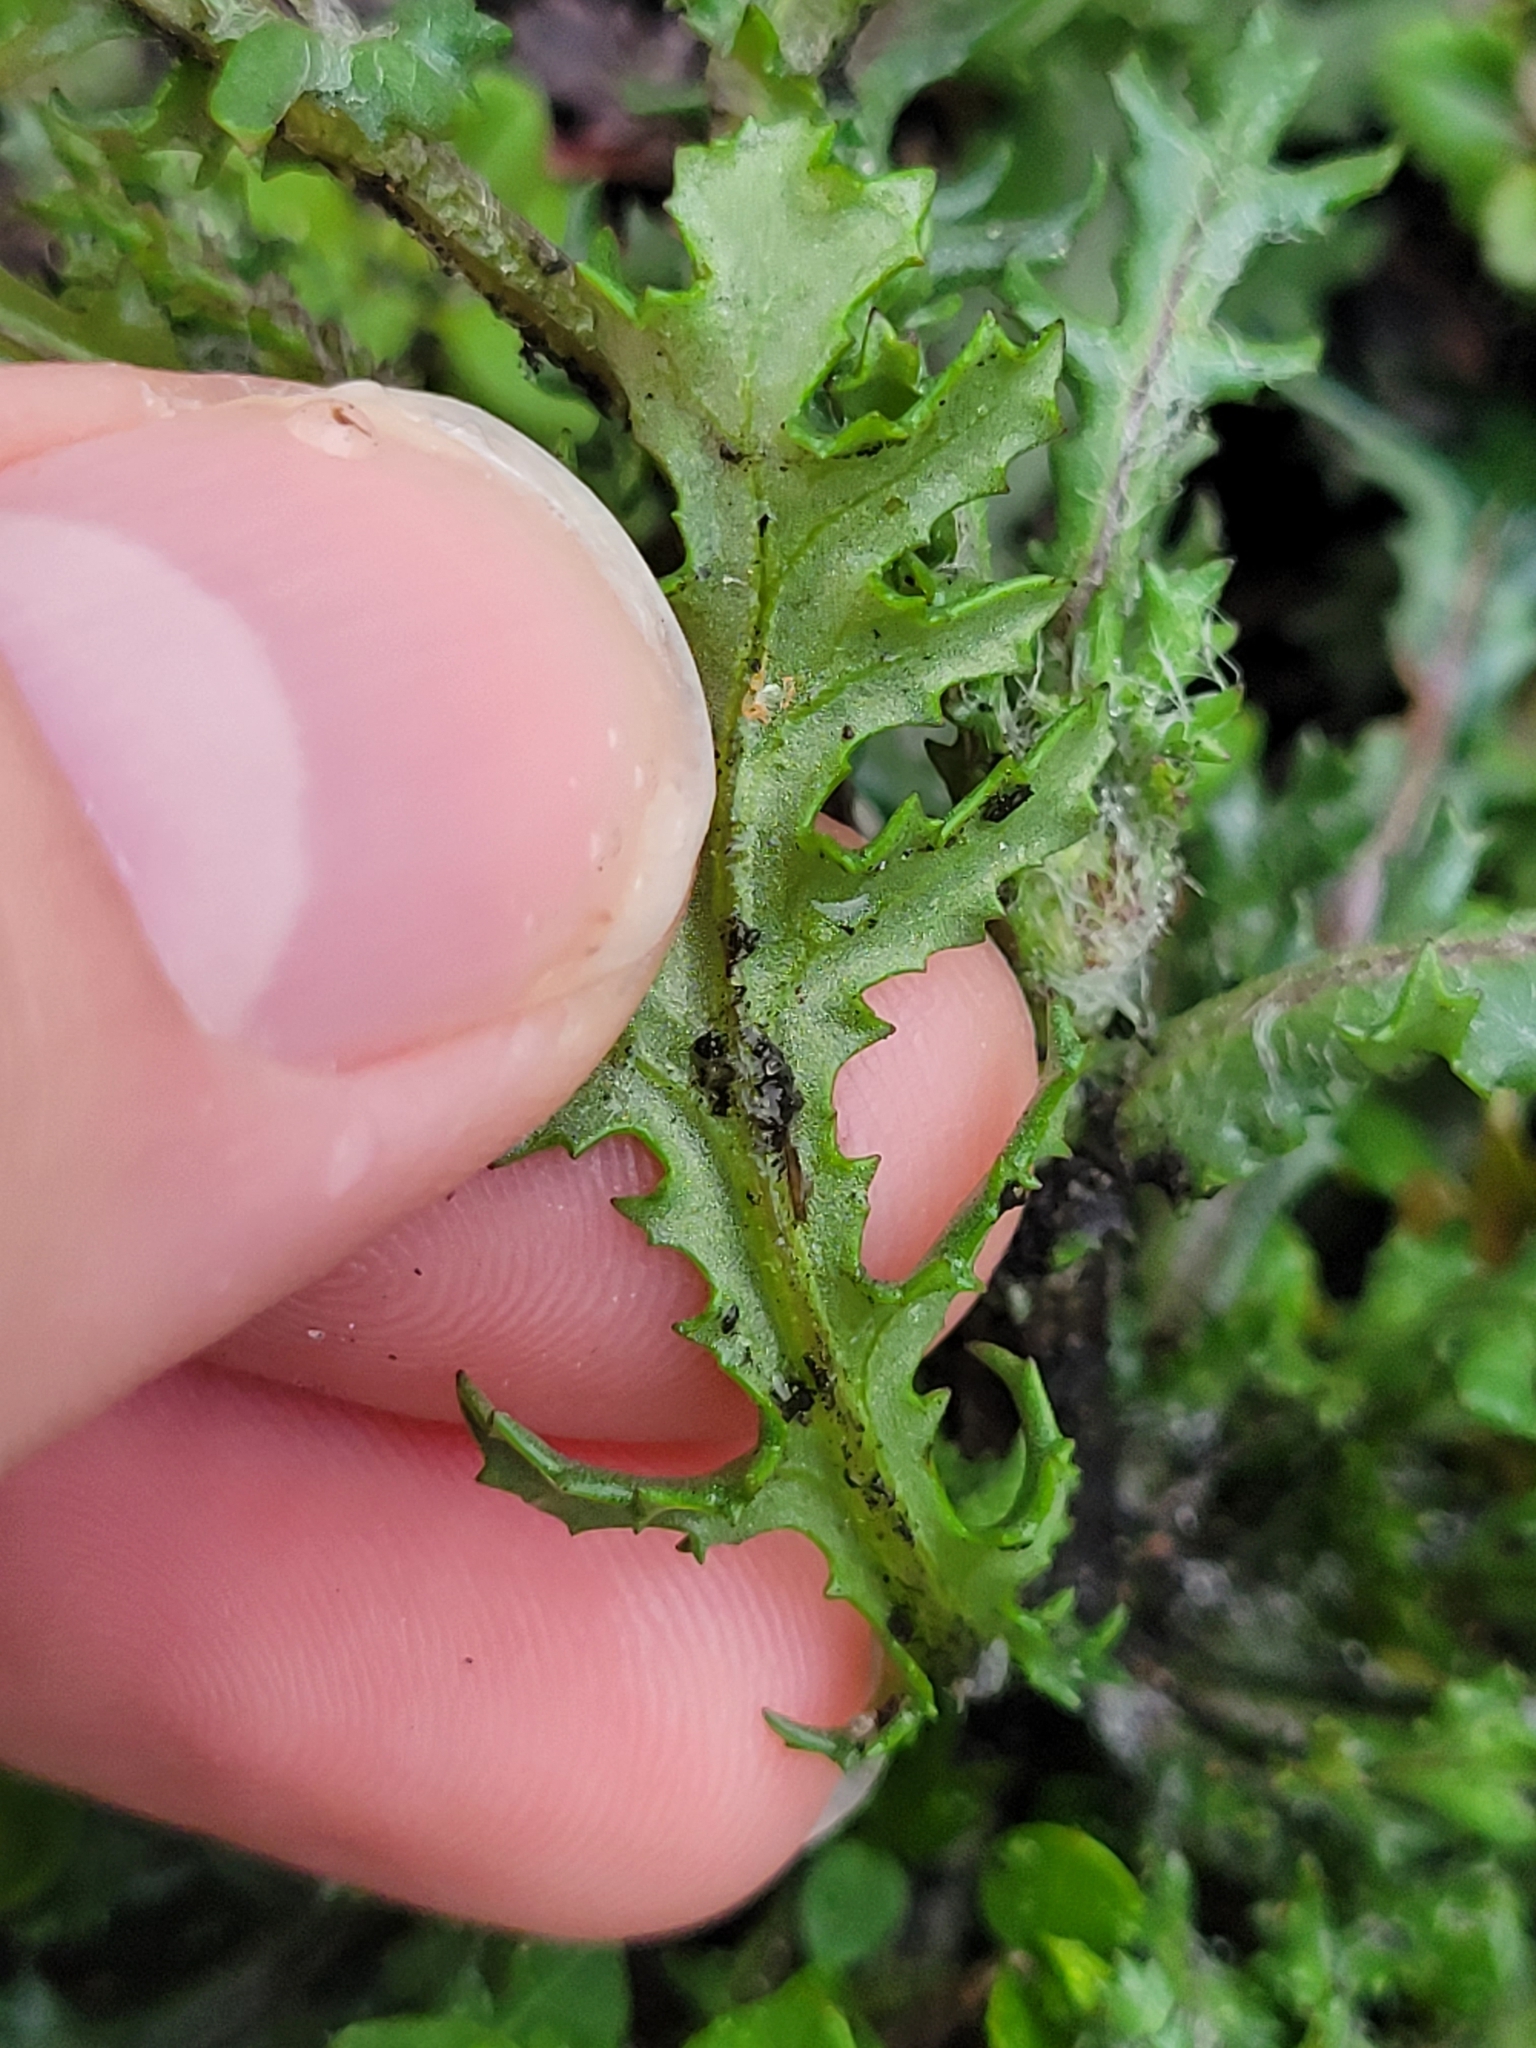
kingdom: Plantae
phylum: Tracheophyta
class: Magnoliopsida
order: Asterales
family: Asteraceae
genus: Senecio
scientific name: Senecio vulgaris
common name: Old-man-in-the-spring
